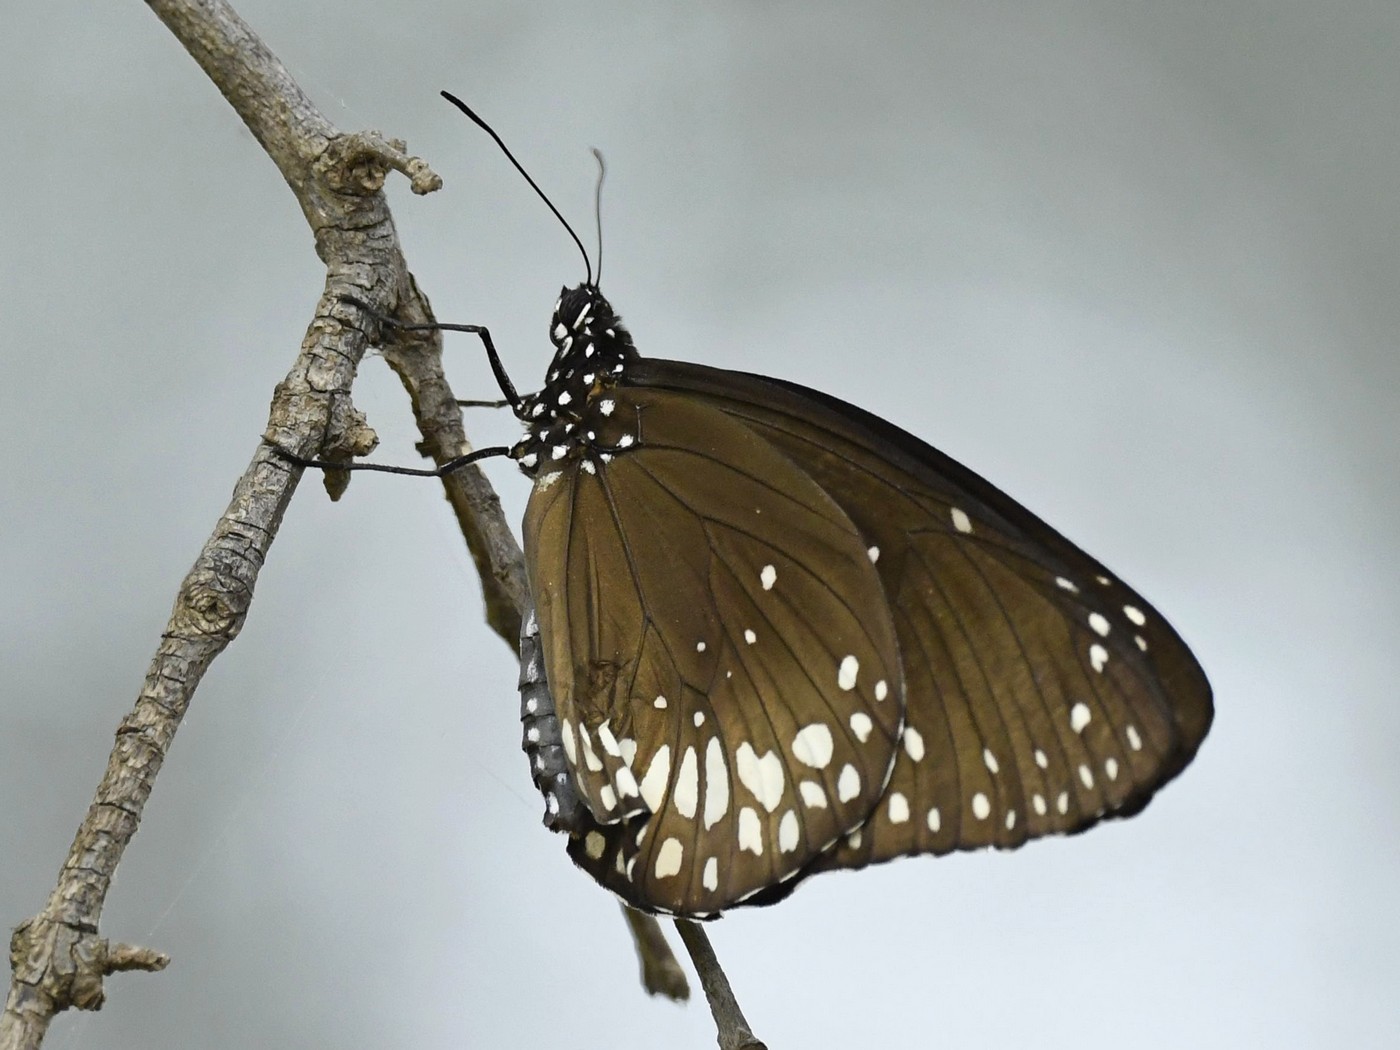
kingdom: Animalia
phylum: Arthropoda
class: Insecta
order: Lepidoptera
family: Nymphalidae
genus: Euploea
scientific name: Euploea core
